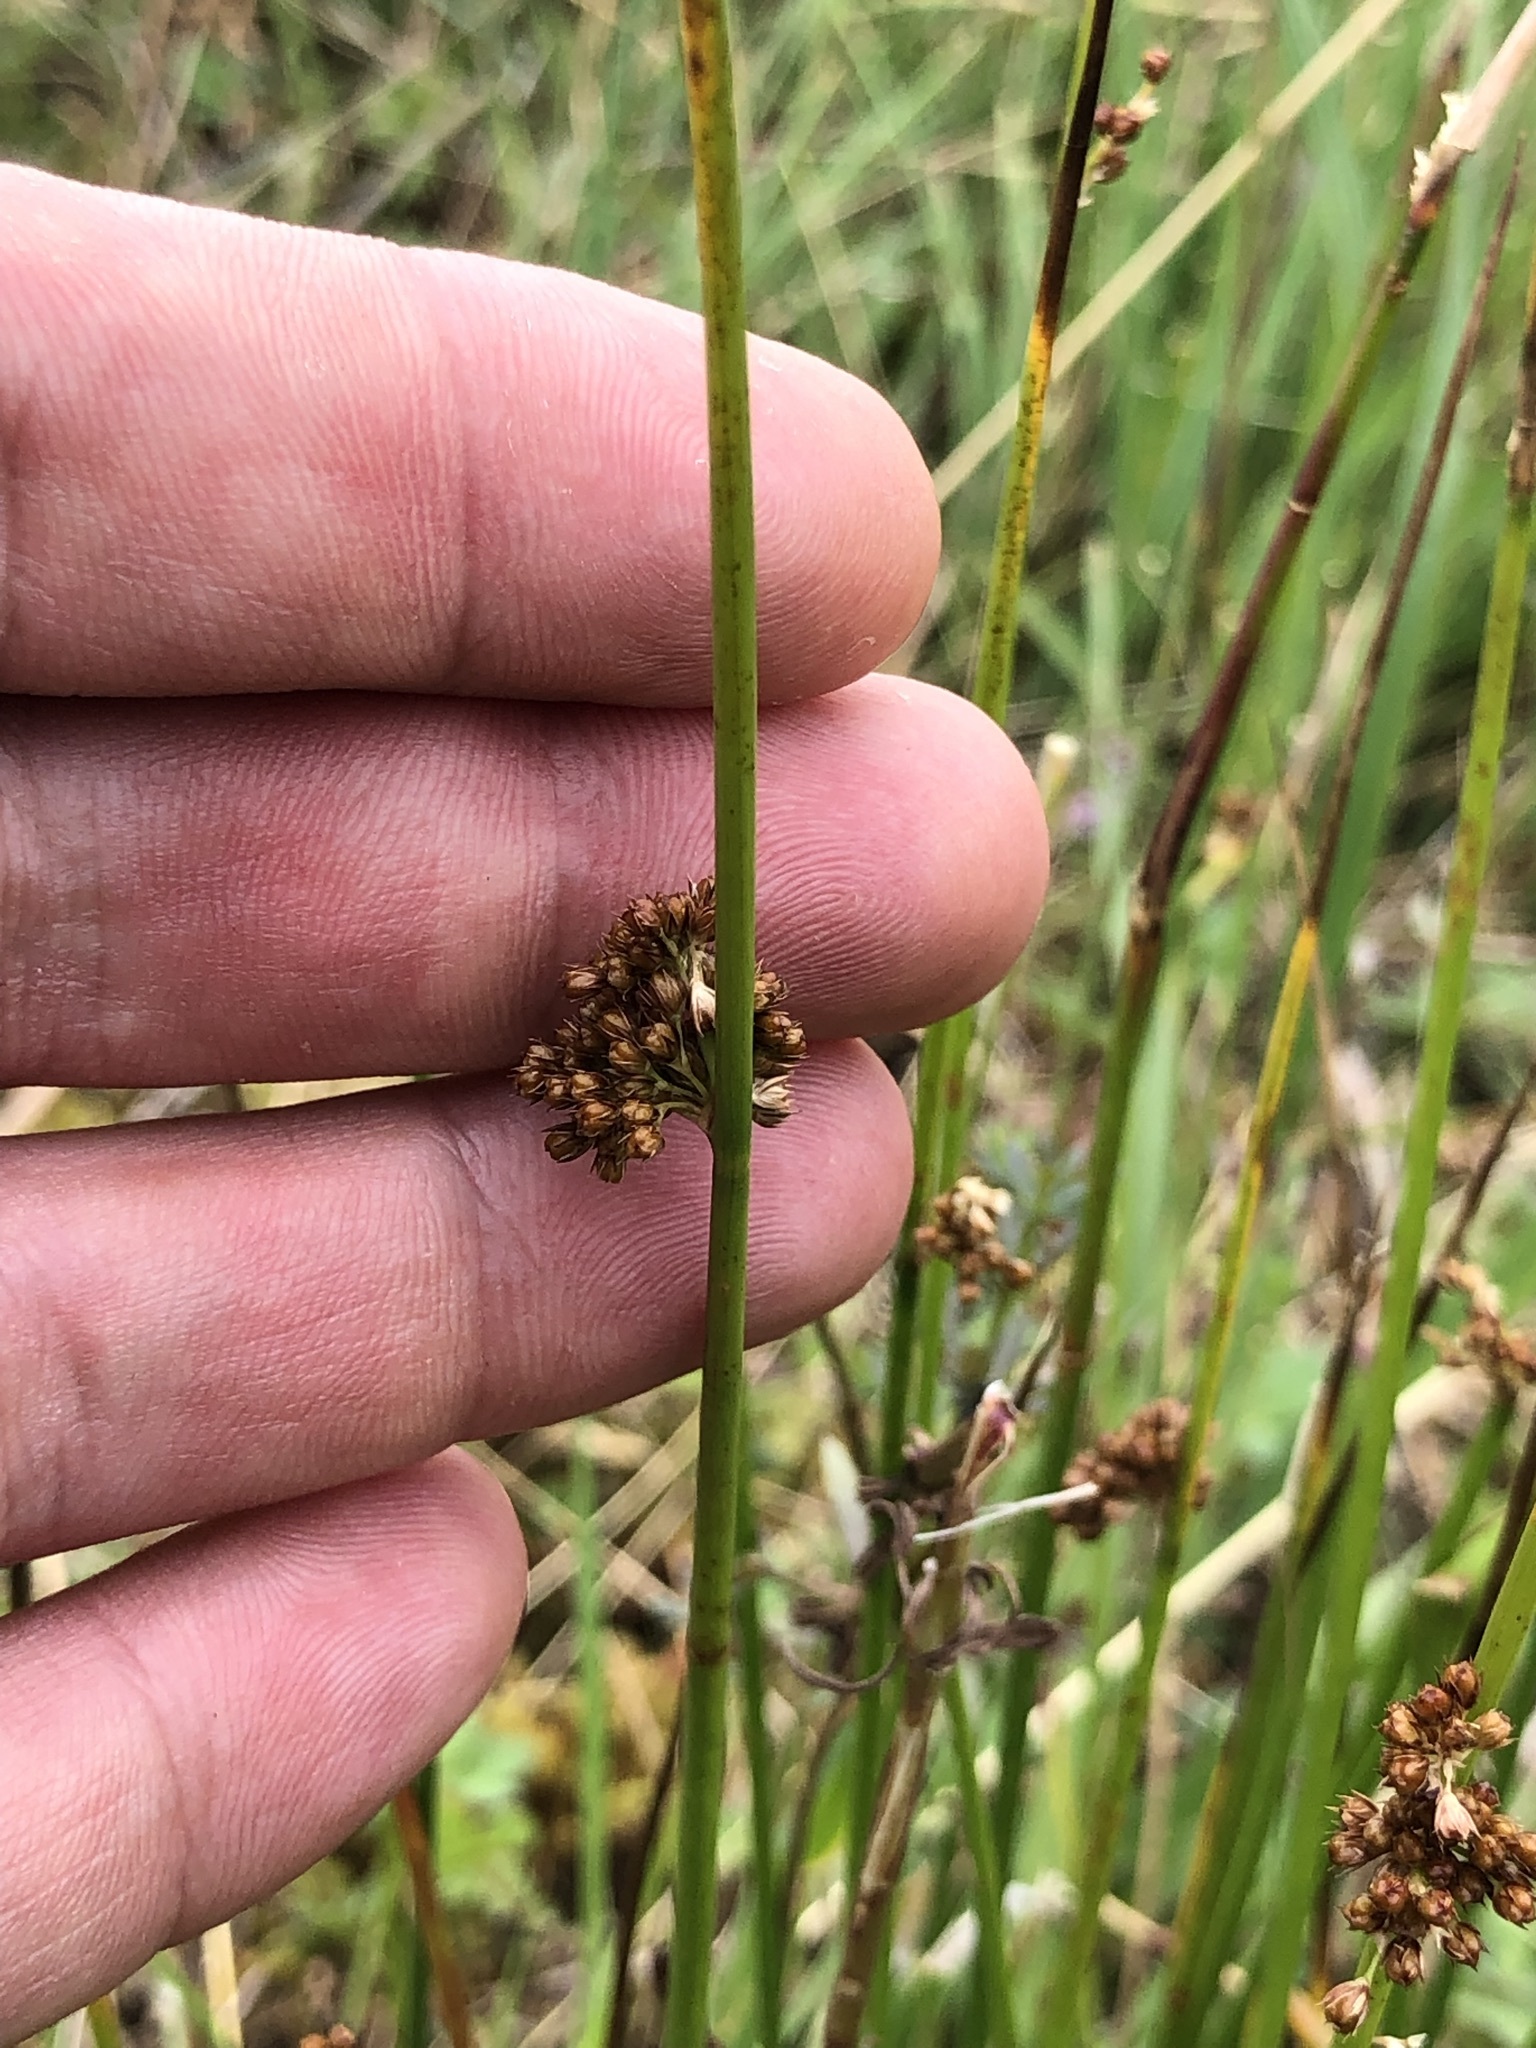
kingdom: Plantae
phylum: Tracheophyta
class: Liliopsida
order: Poales
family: Juncaceae
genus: Juncus
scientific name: Juncus effusus
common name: Soft rush
